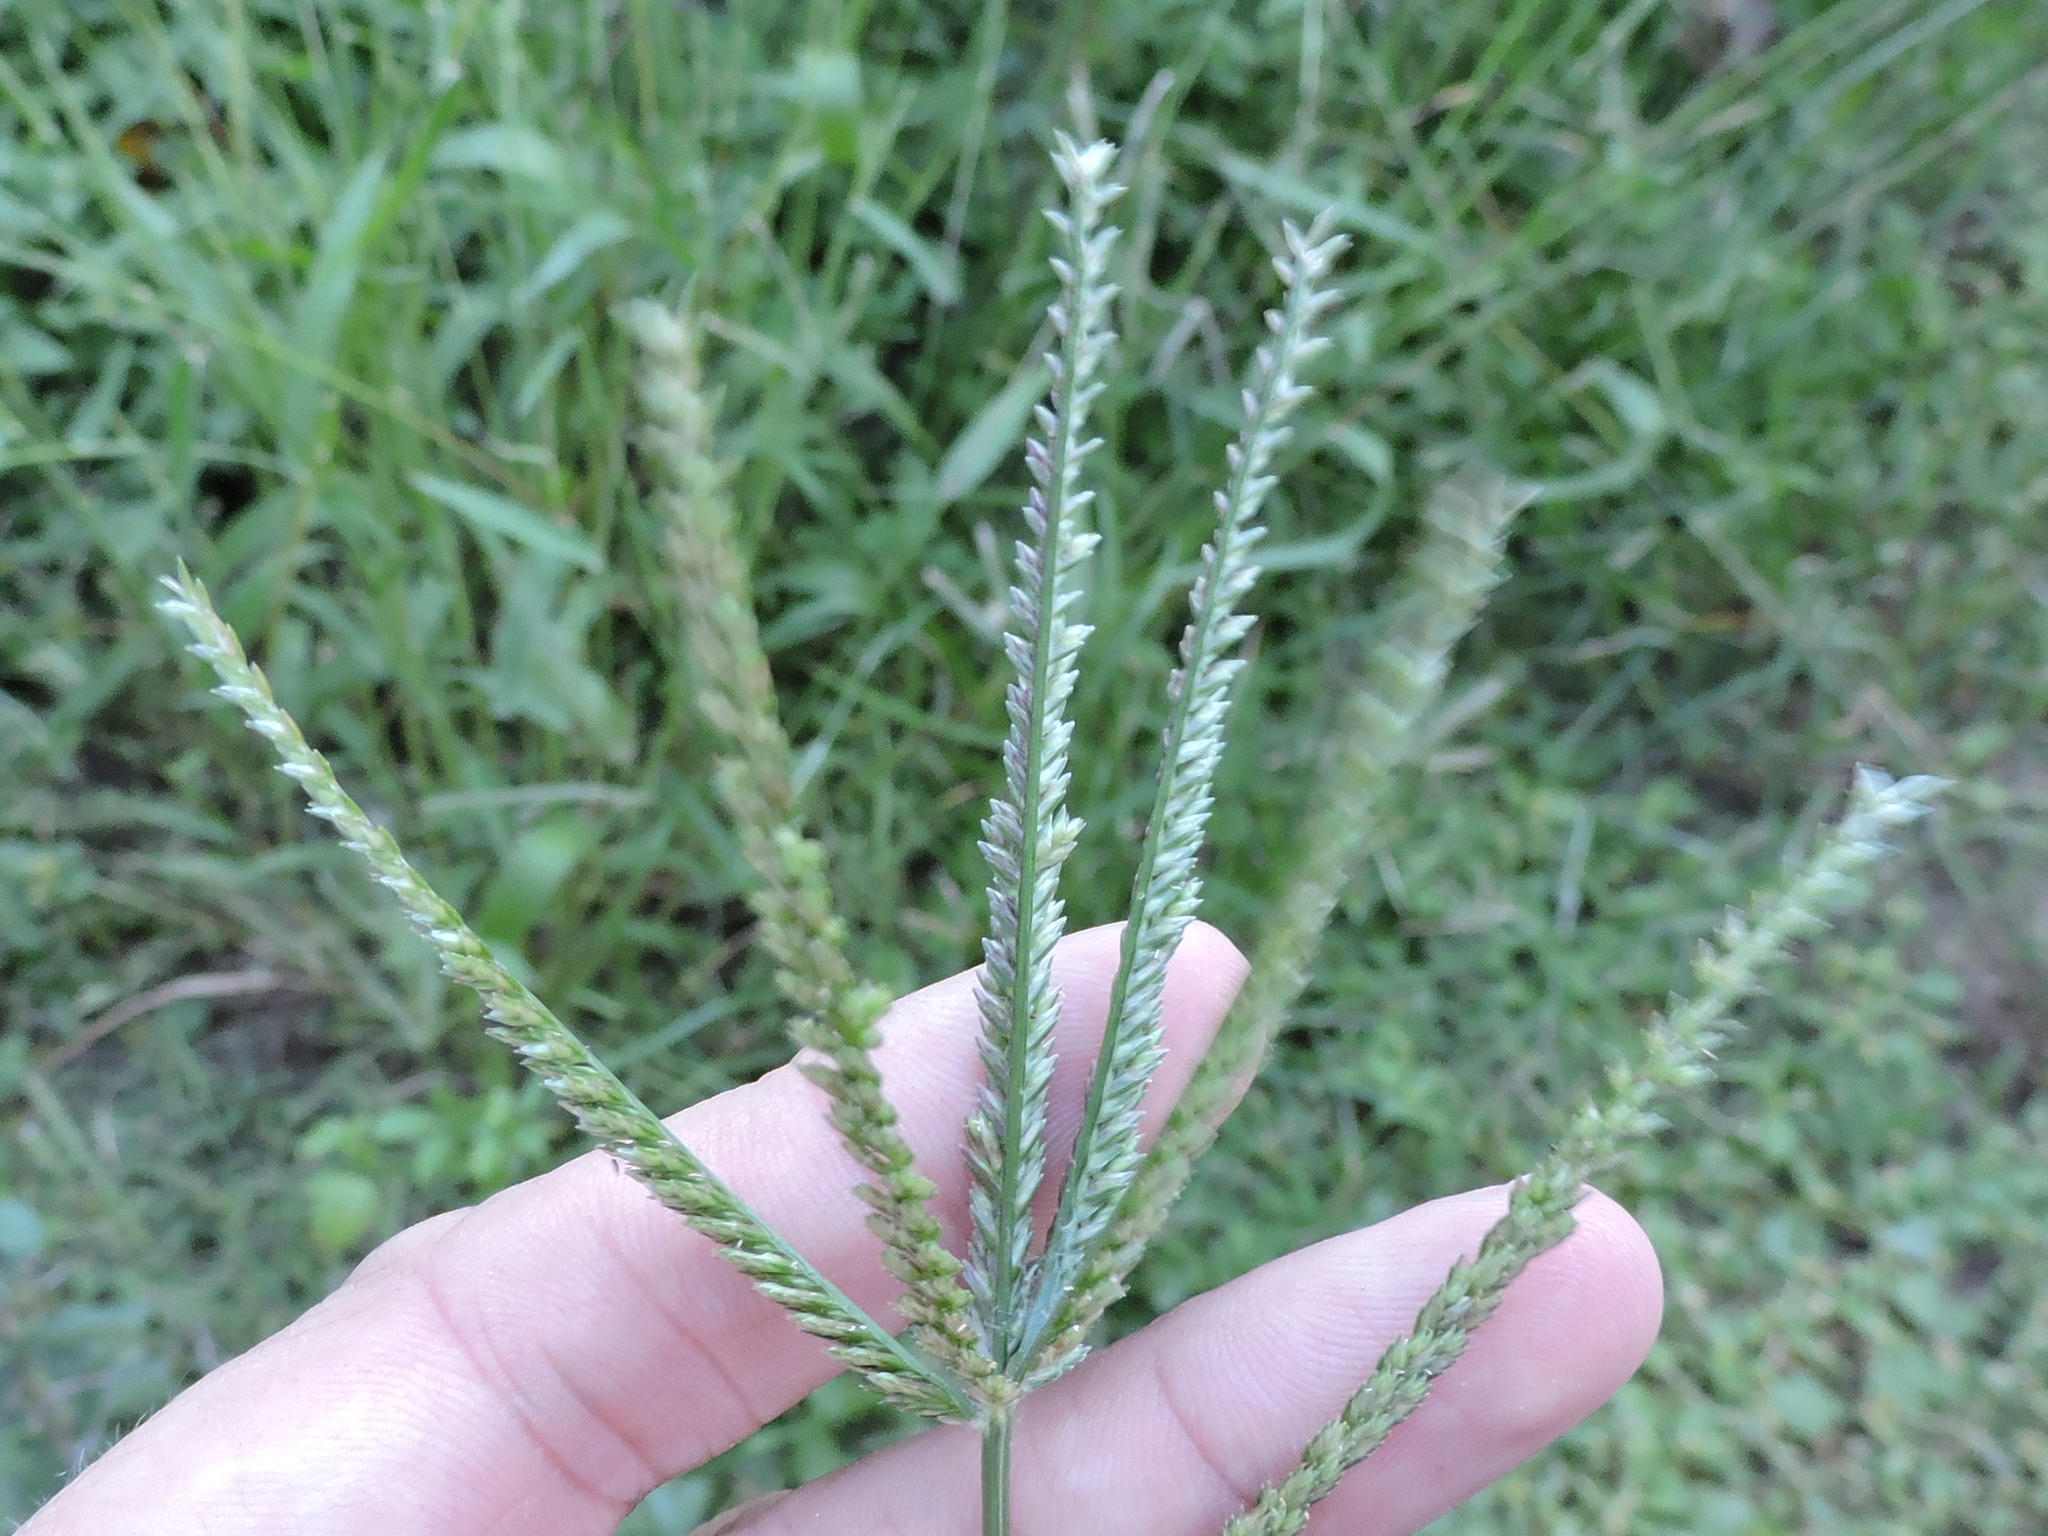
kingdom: Plantae
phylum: Tracheophyta
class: Liliopsida
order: Poales
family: Poaceae
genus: Eleusine
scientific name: Eleusine indica
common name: Yard-grass
